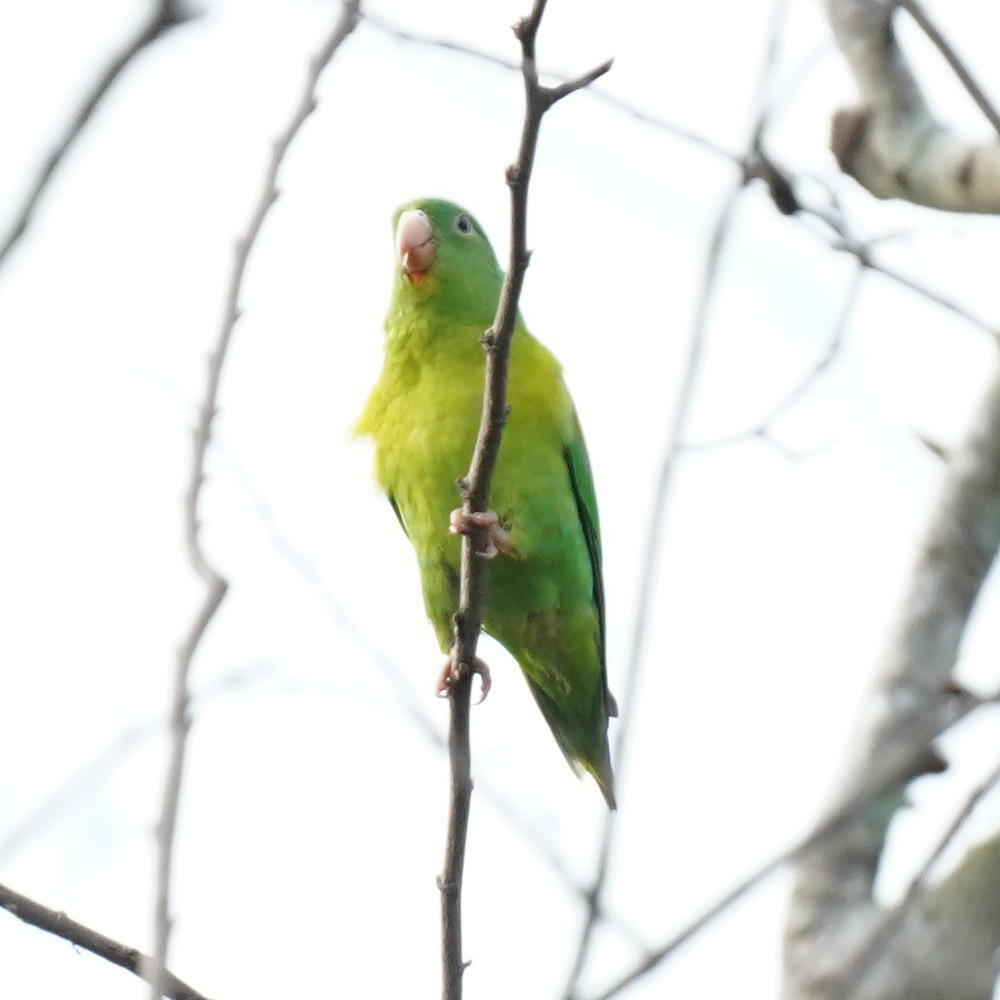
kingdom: Animalia
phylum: Chordata
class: Aves
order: Psittaciformes
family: Psittacidae
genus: Brotogeris
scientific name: Brotogeris jugularis
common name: Orange-chinned parakeet
